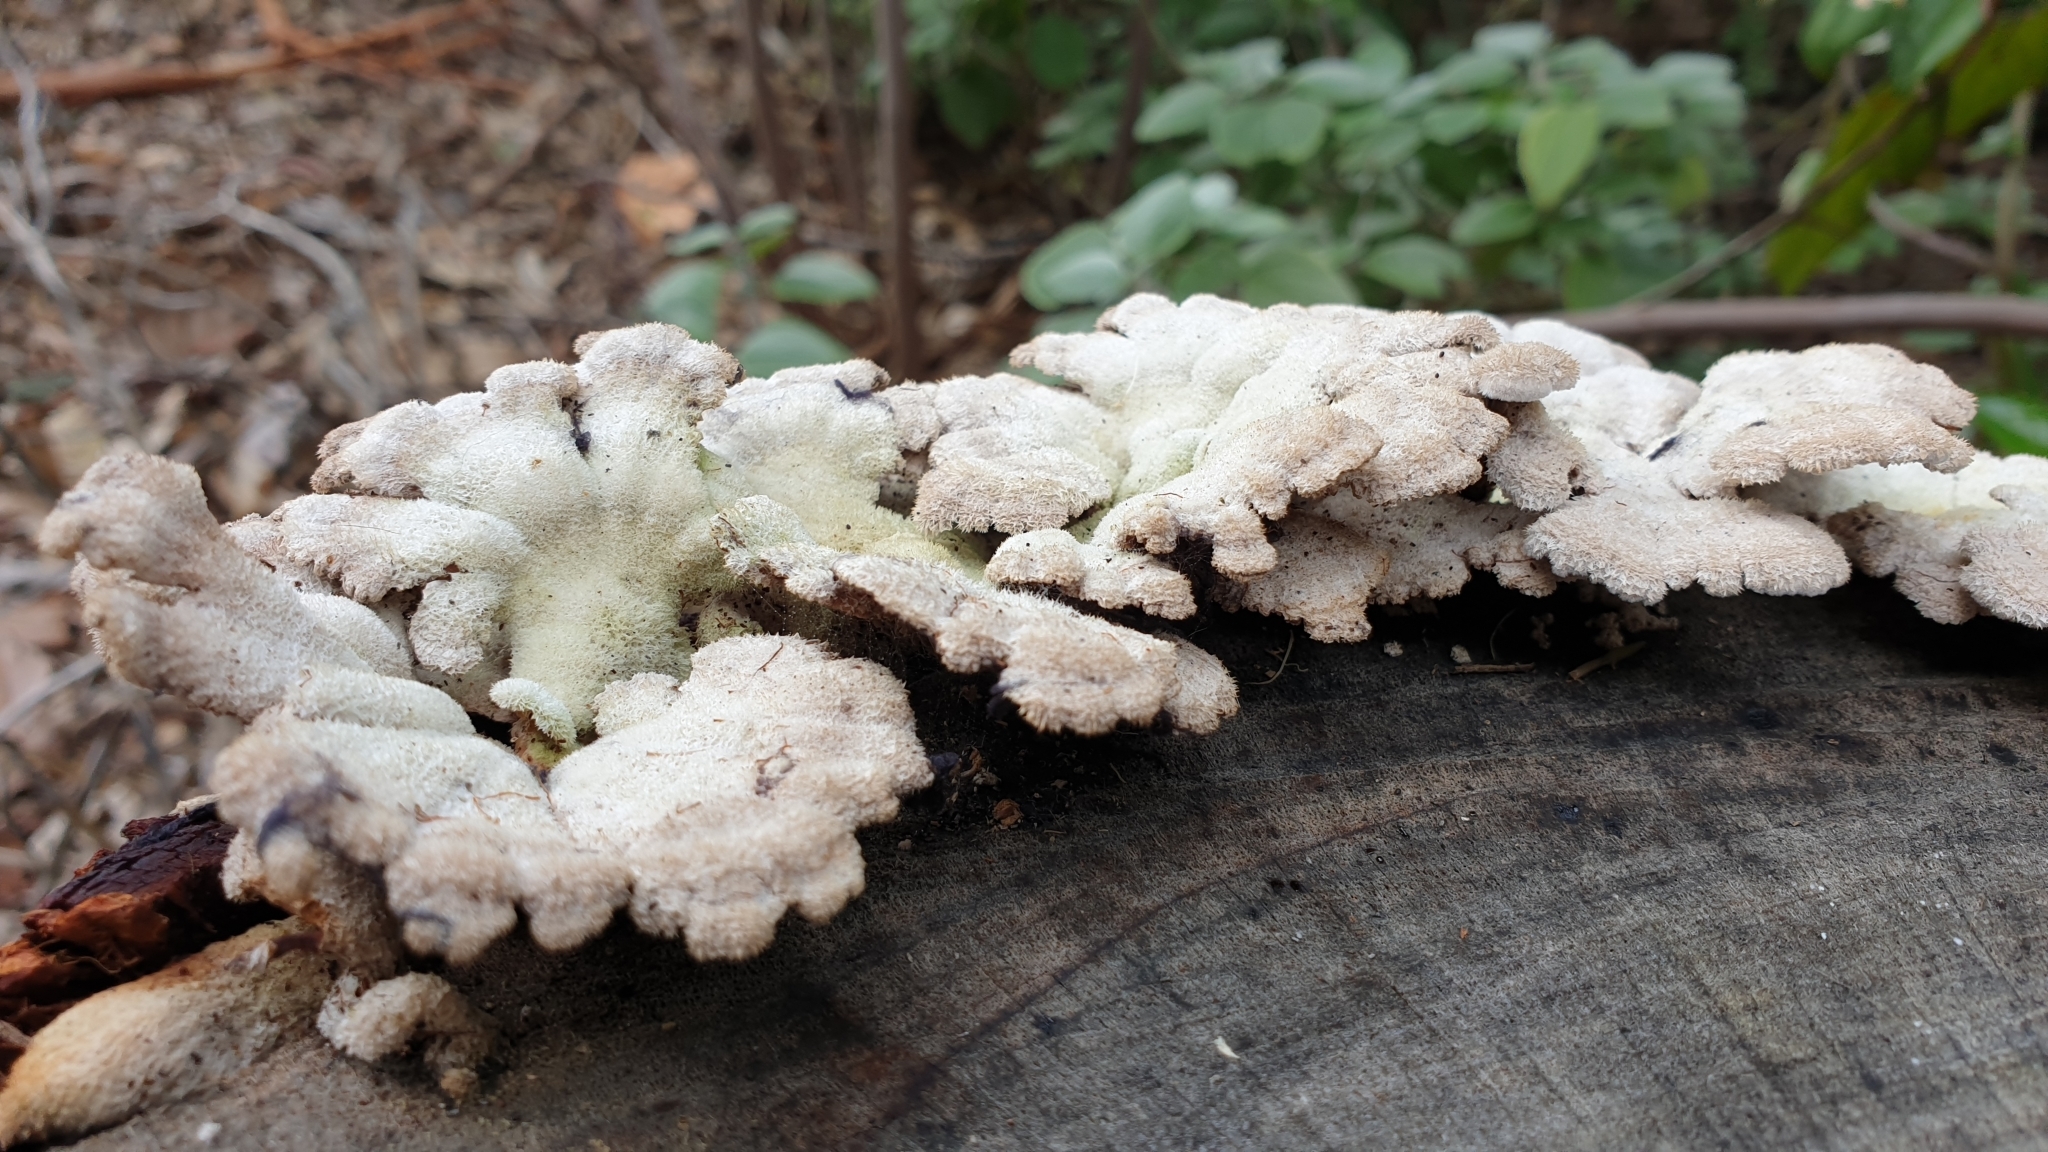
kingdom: Fungi
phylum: Basidiomycota
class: Agaricomycetes
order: Agaricales
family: Schizophyllaceae
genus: Schizophyllum
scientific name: Schizophyllum commune
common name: Common porecrust
